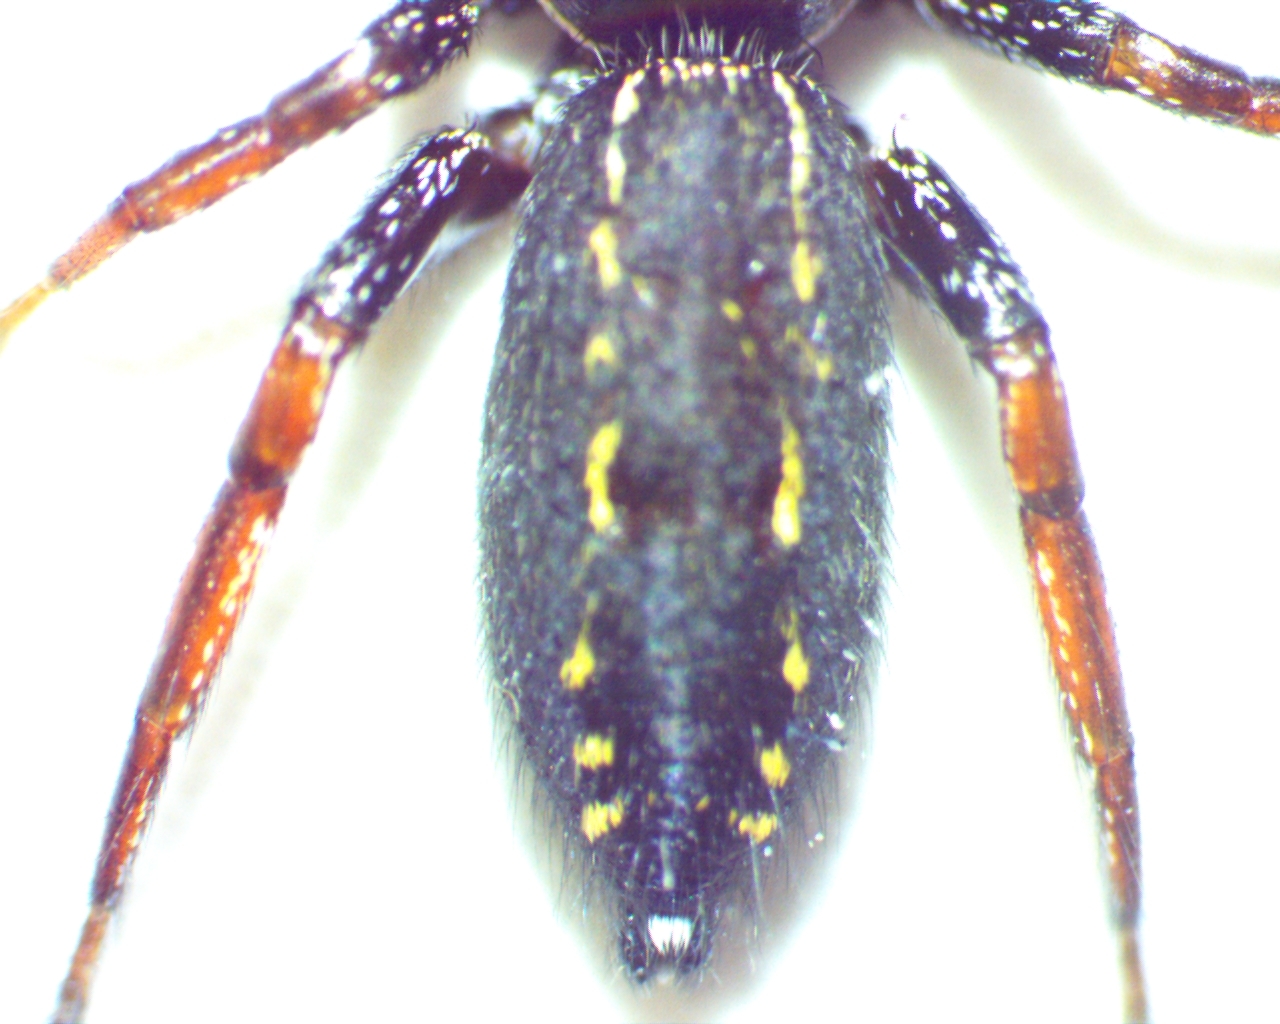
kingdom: Animalia
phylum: Arthropoda
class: Arachnida
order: Araneae
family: Salticidae
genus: Metacyrba
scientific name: Metacyrba taeniola
